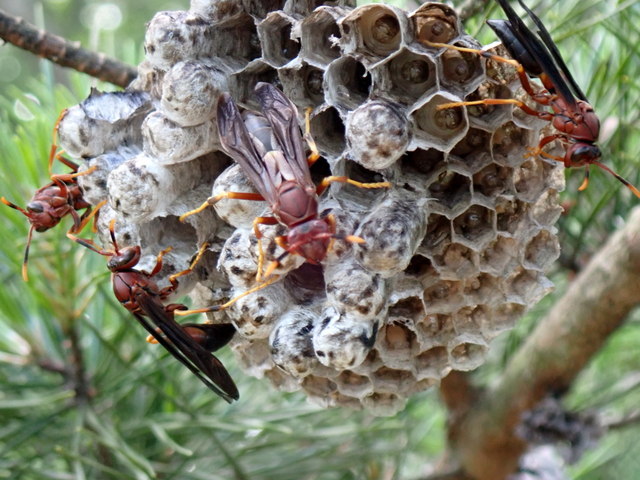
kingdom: Animalia
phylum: Arthropoda
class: Insecta
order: Hymenoptera
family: Eumenidae
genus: Polistes
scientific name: Polistes annularis
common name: Ringed paper wasp
